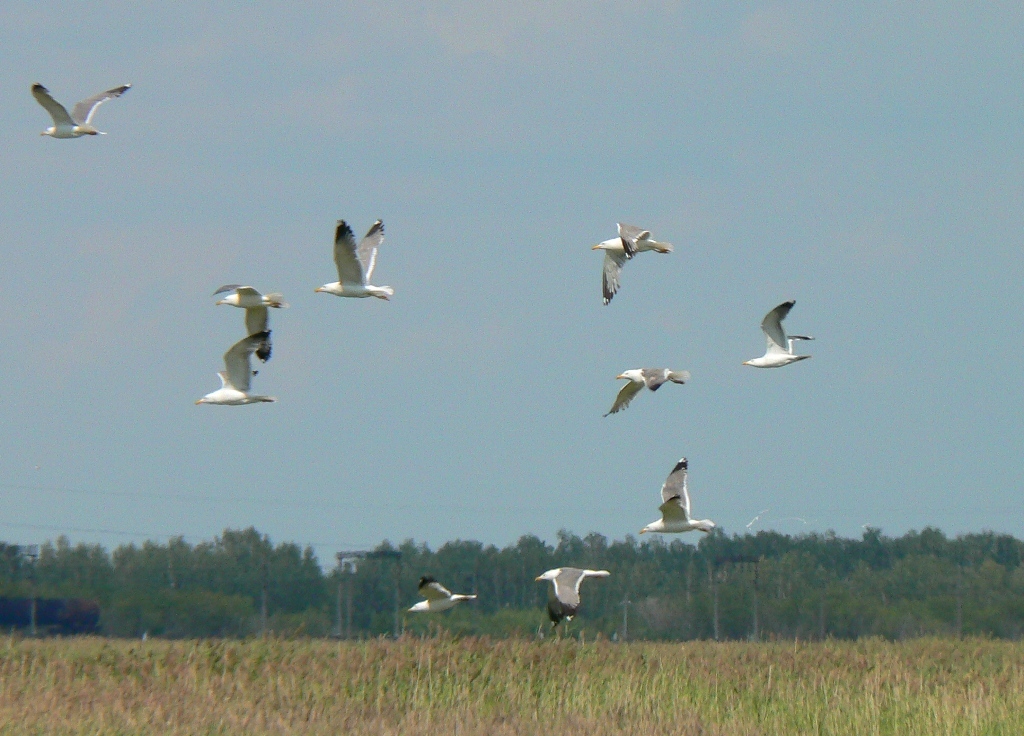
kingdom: Animalia
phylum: Chordata
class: Aves
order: Charadriiformes
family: Laridae
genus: Larus
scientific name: Larus fuscus
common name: Lesser black-backed gull
